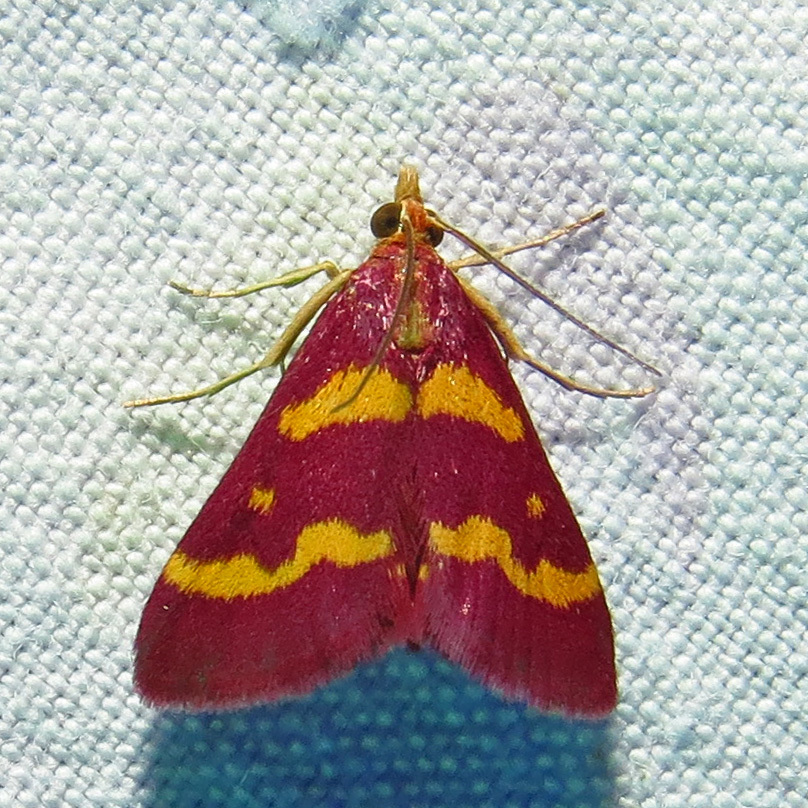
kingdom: Animalia
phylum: Arthropoda
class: Insecta
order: Lepidoptera
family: Crambidae
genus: Pyrausta
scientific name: Pyrausta tyralis
